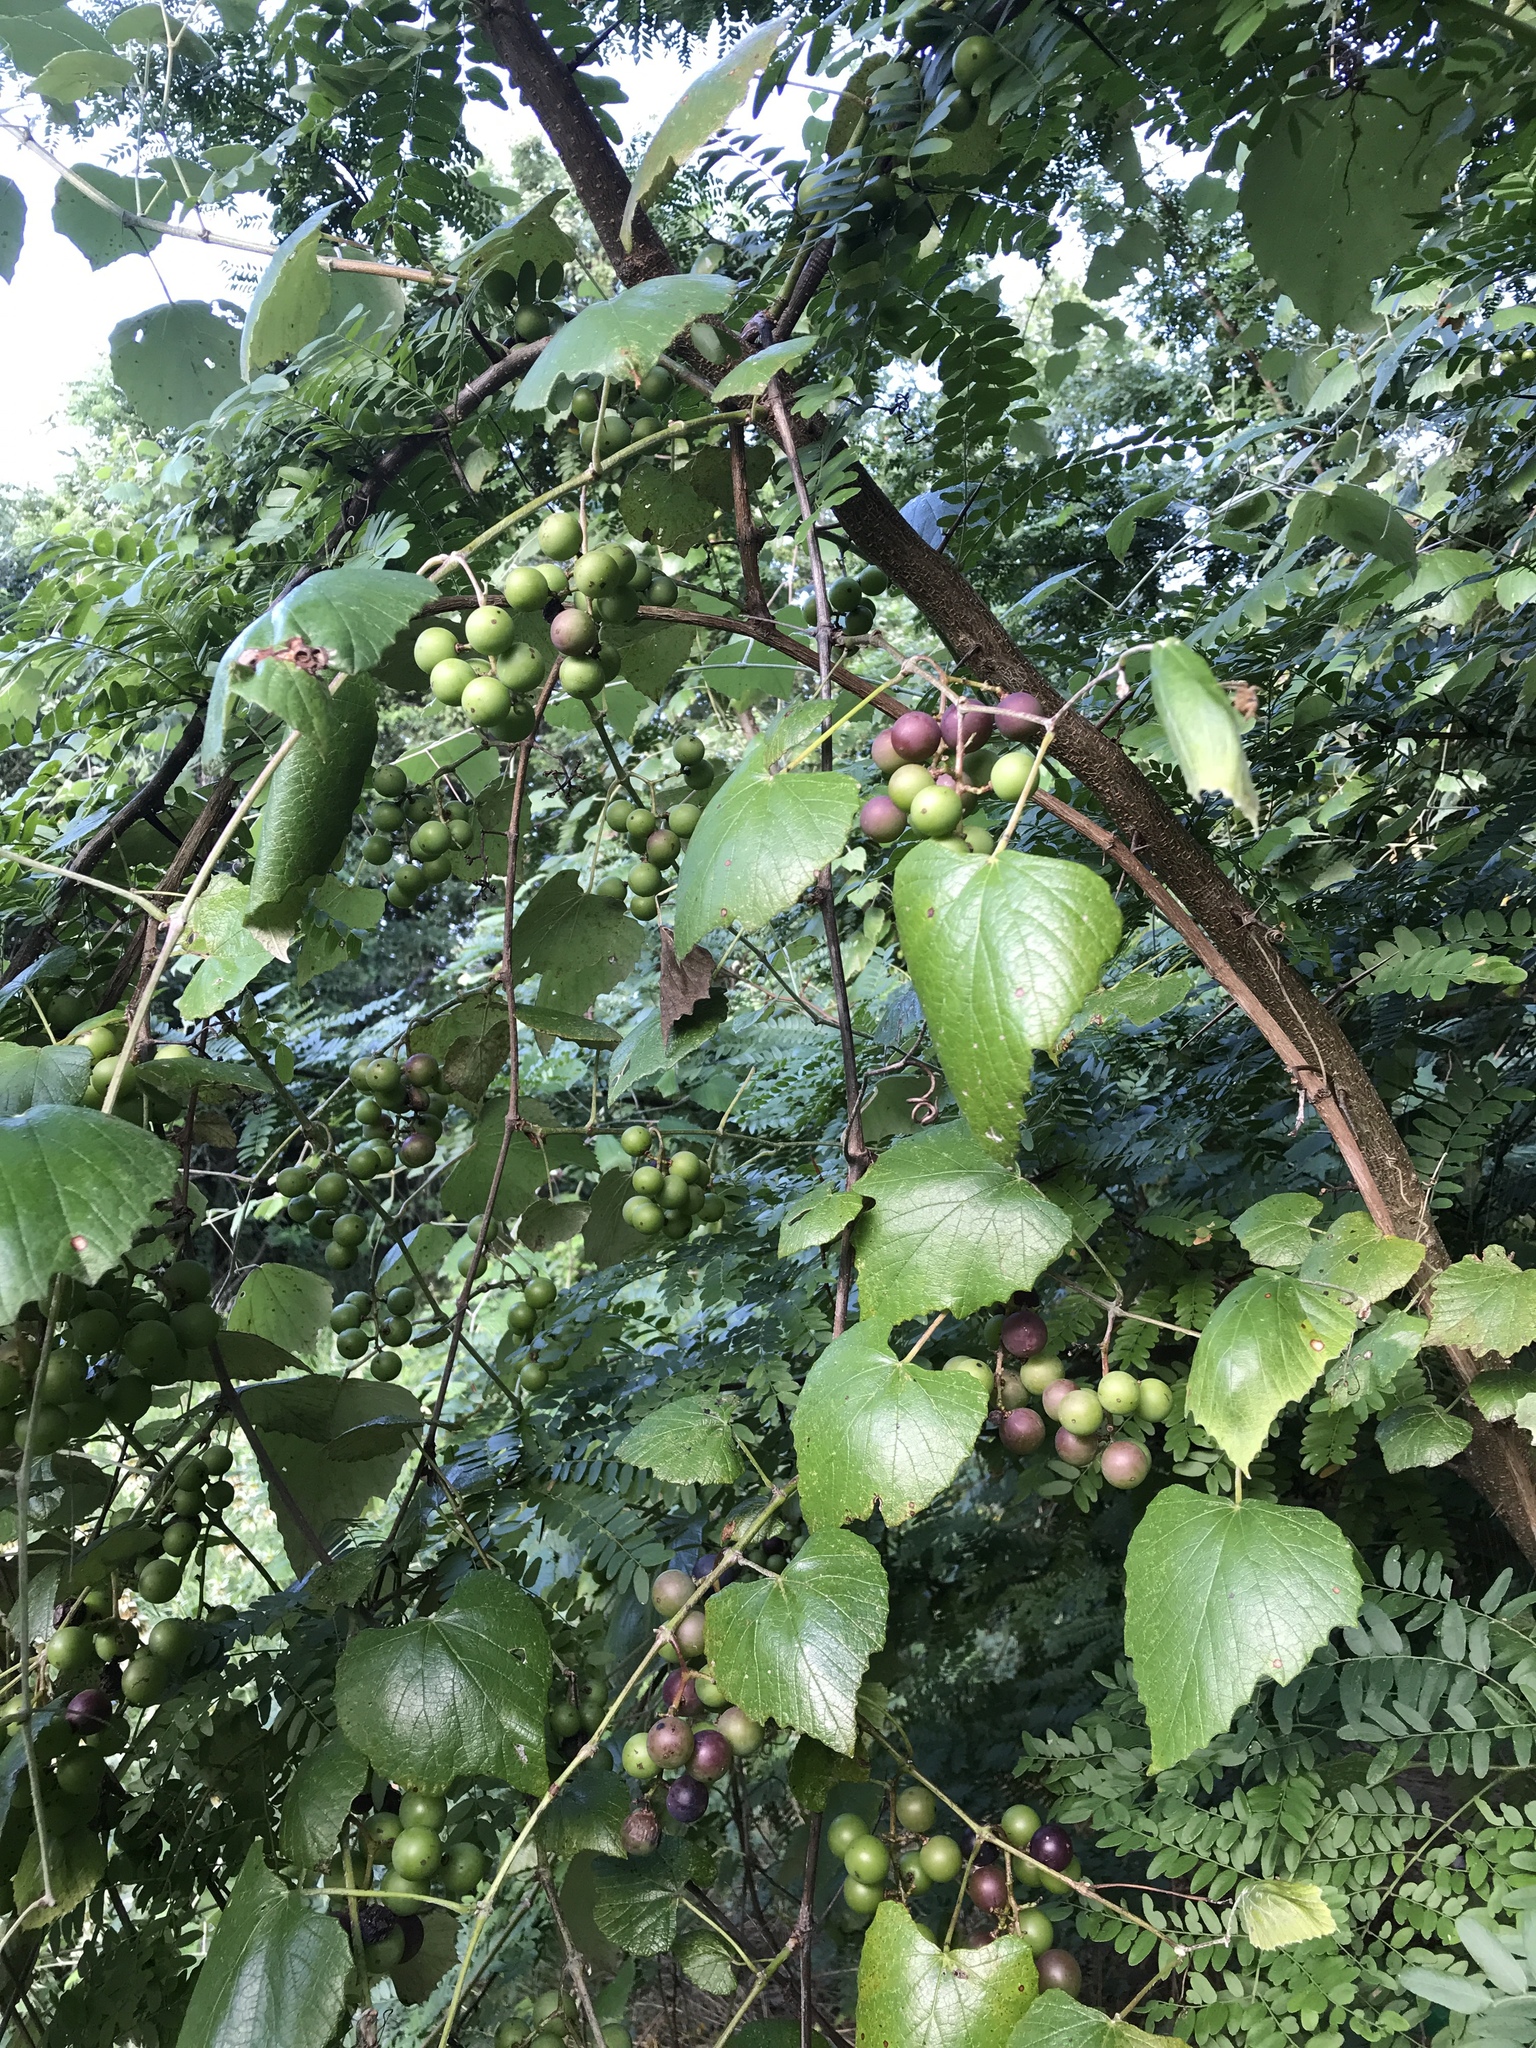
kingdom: Plantae
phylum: Tracheophyta
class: Magnoliopsida
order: Vitales
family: Vitaceae
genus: Vitis
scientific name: Vitis mustangensis
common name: Mustang grape
